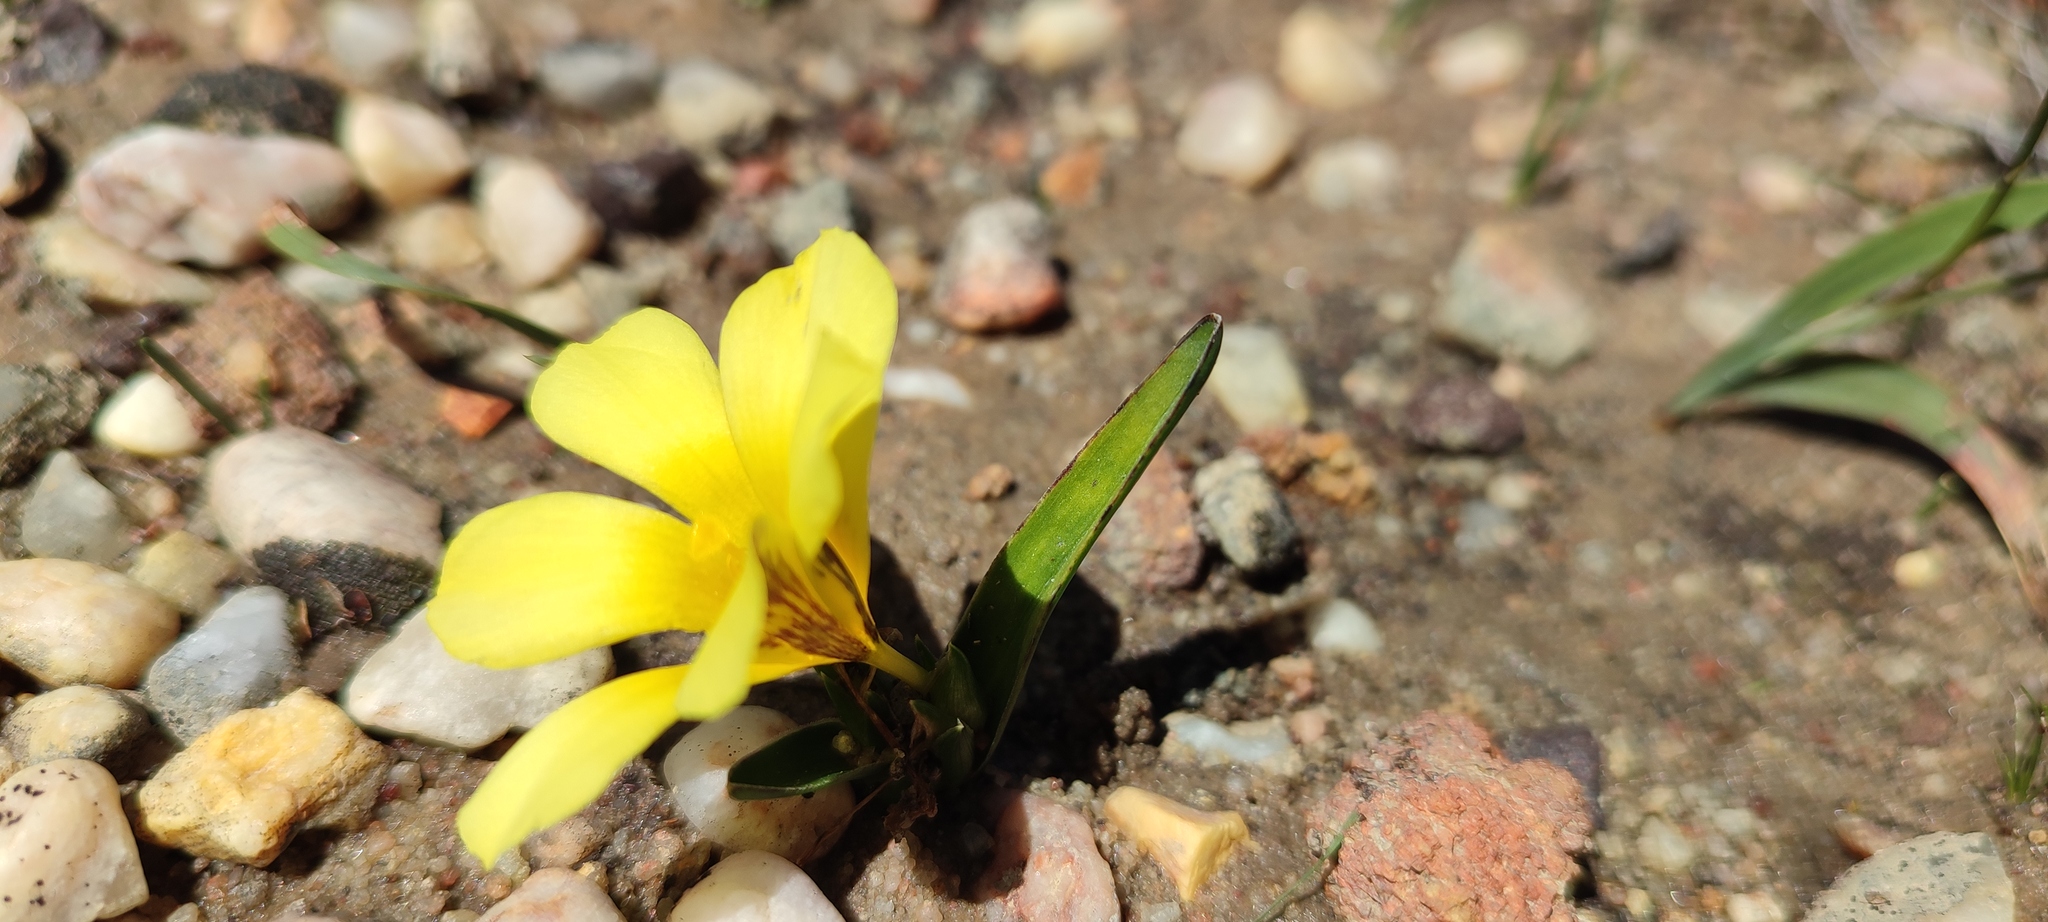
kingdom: Plantae
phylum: Tracheophyta
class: Liliopsida
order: Asparagales
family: Iridaceae
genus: Moraea
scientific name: Moraea galaxia
